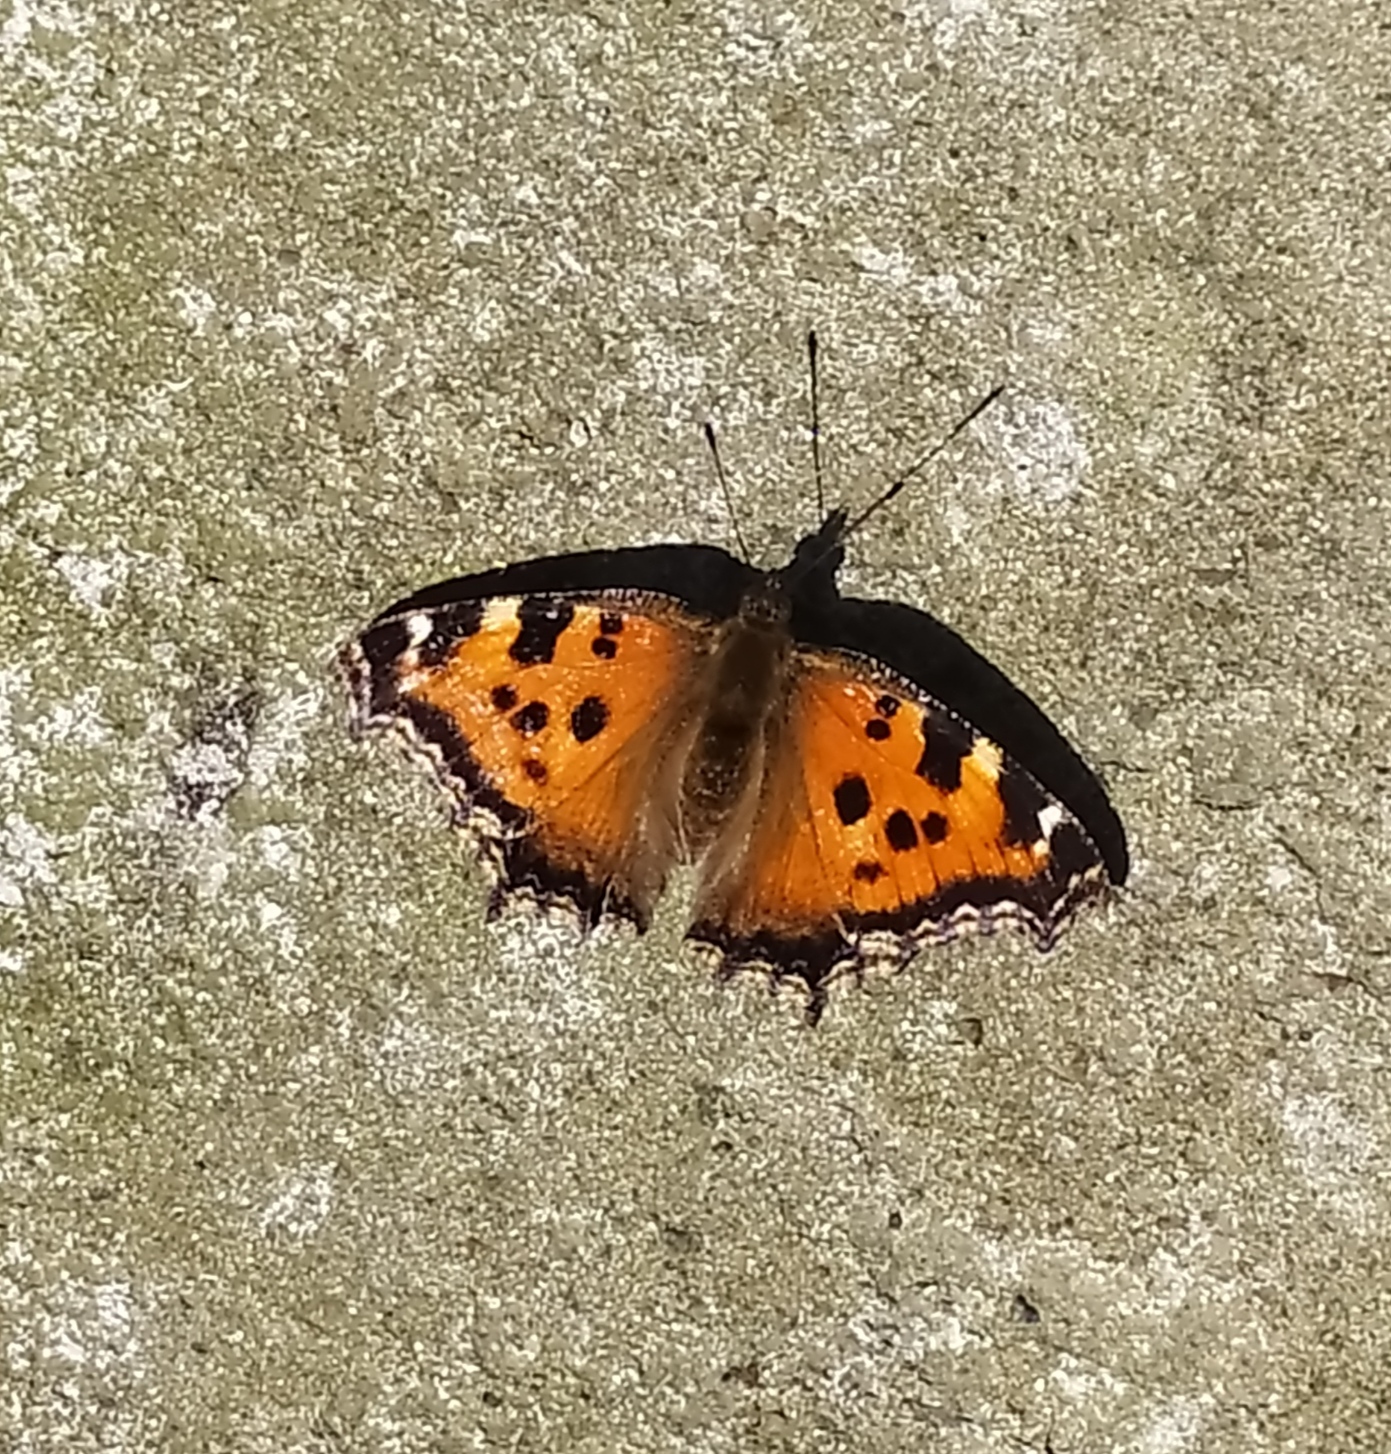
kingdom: Animalia
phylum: Arthropoda
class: Insecta
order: Lepidoptera
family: Nymphalidae
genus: Nymphalis
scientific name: Nymphalis xanthomelas
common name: Scarce tortoiseshell
